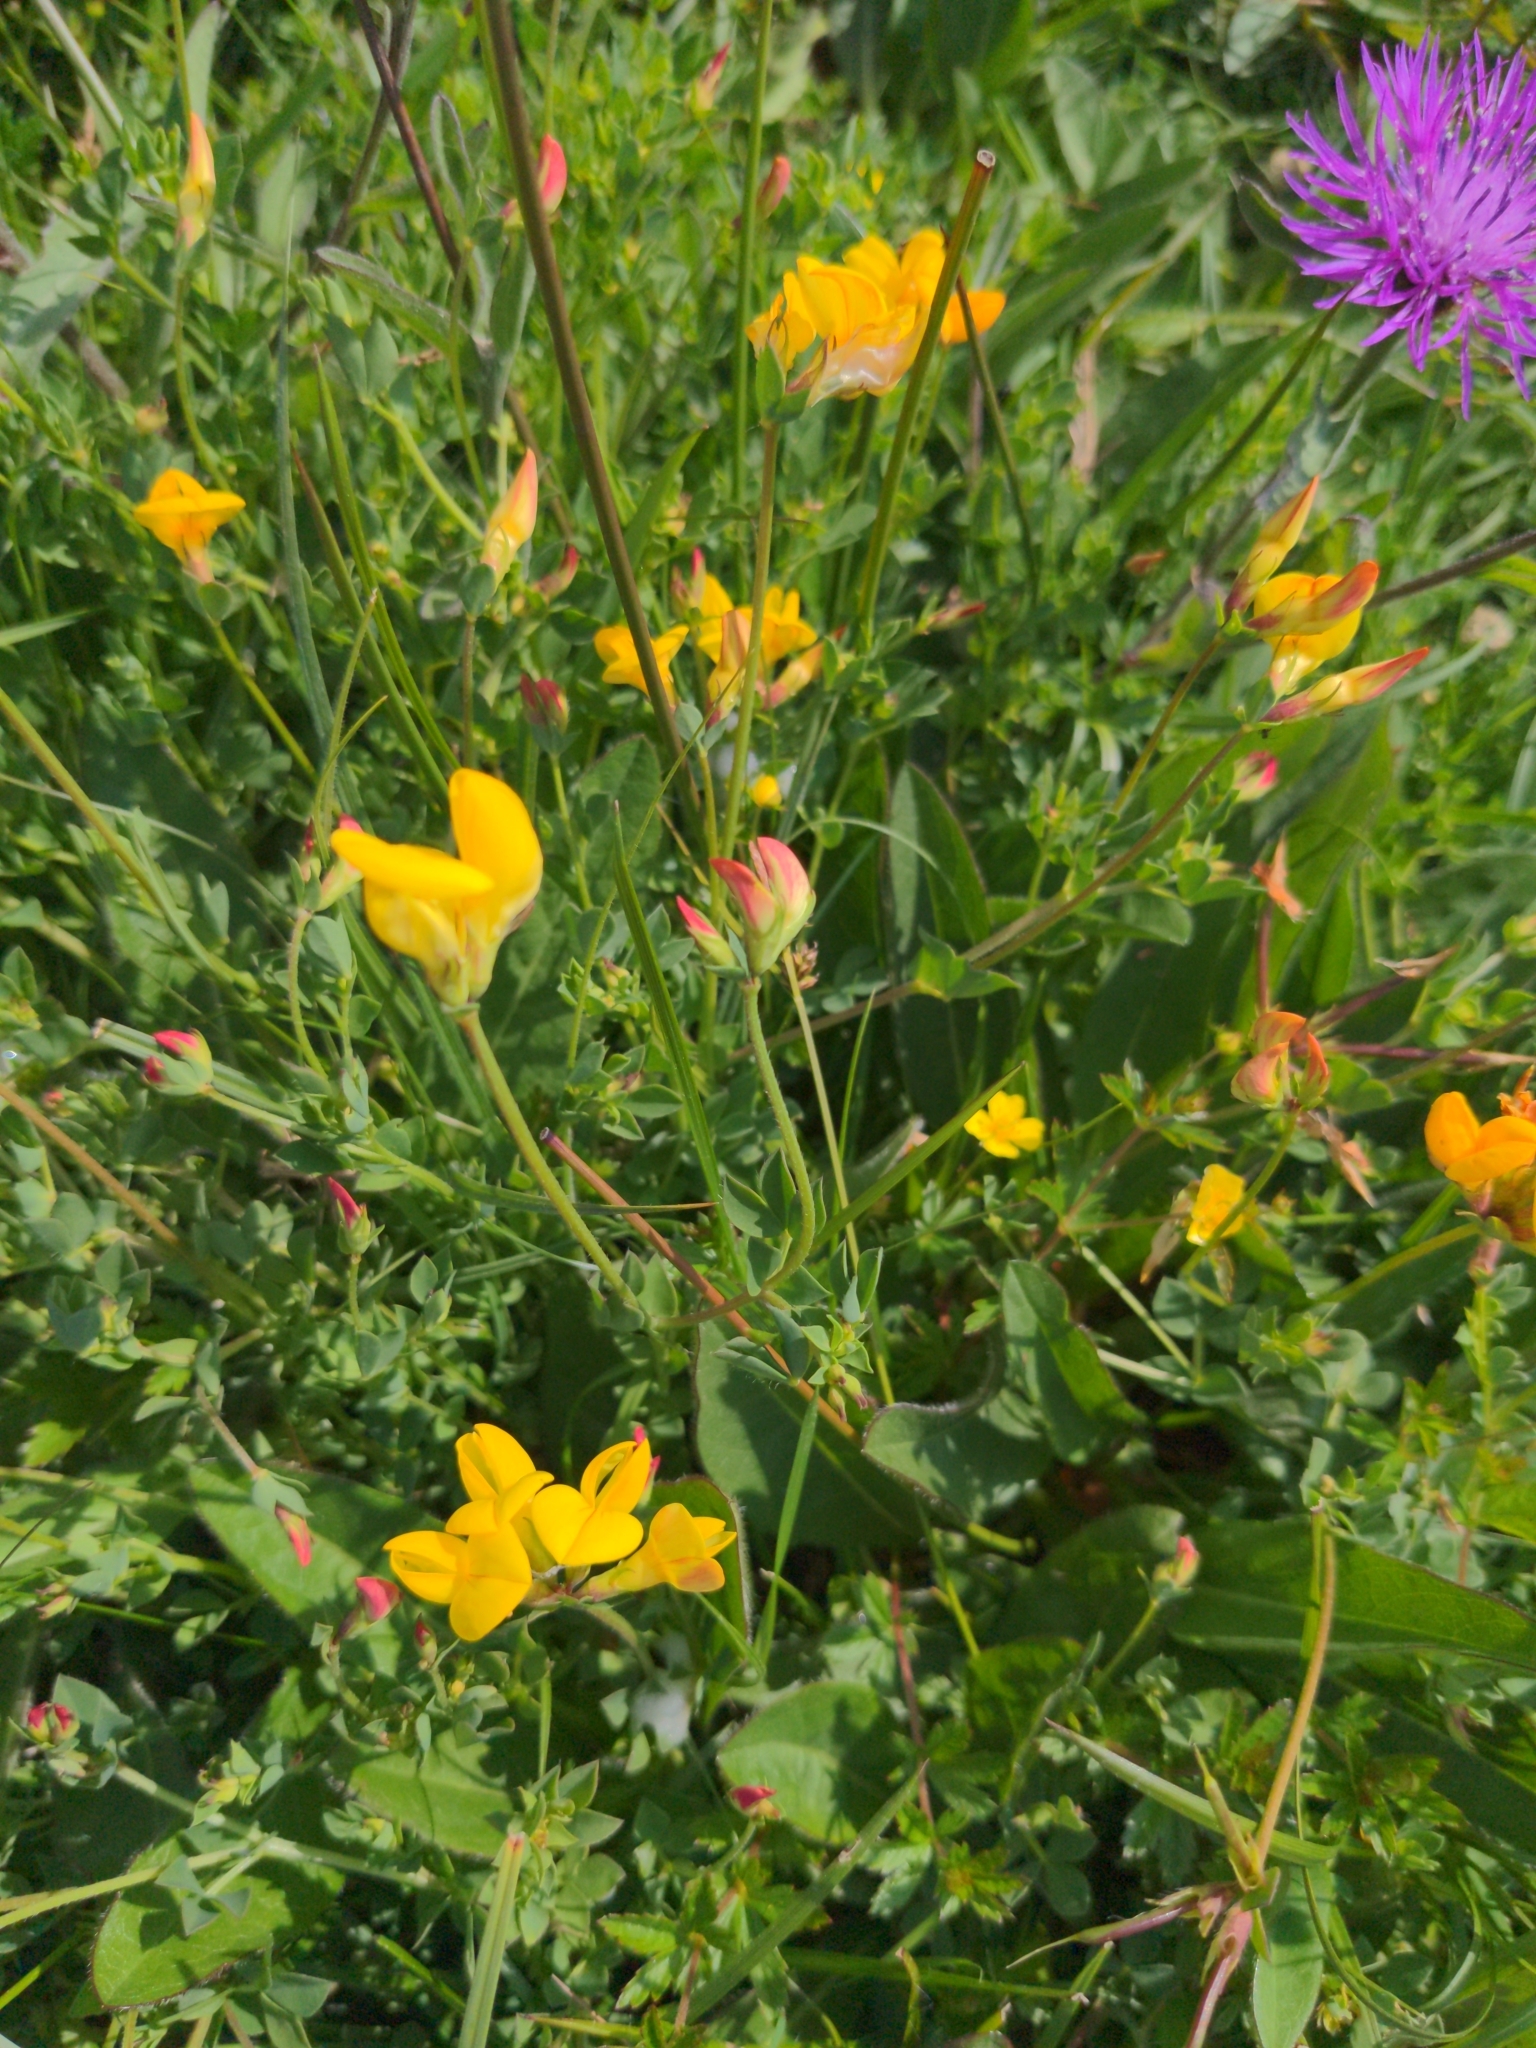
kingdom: Plantae
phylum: Tracheophyta
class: Magnoliopsida
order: Fabales
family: Fabaceae
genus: Lotus
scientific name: Lotus corniculatus
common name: Common bird's-foot-trefoil
